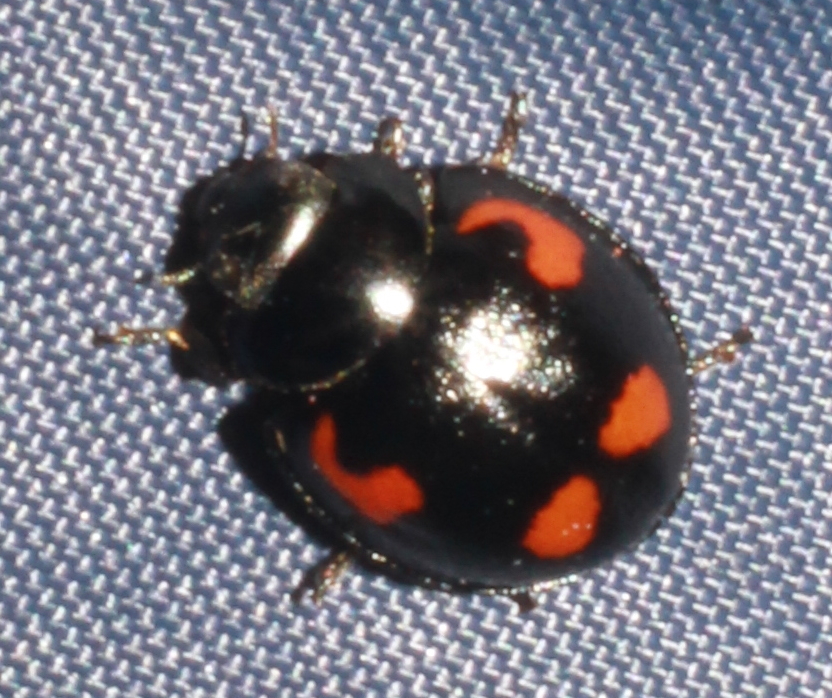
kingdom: Animalia
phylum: Arthropoda
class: Insecta
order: Coleoptera
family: Coccinellidae
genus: Brumus
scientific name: Brumus quadripustulatus
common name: Ladybird beetle
